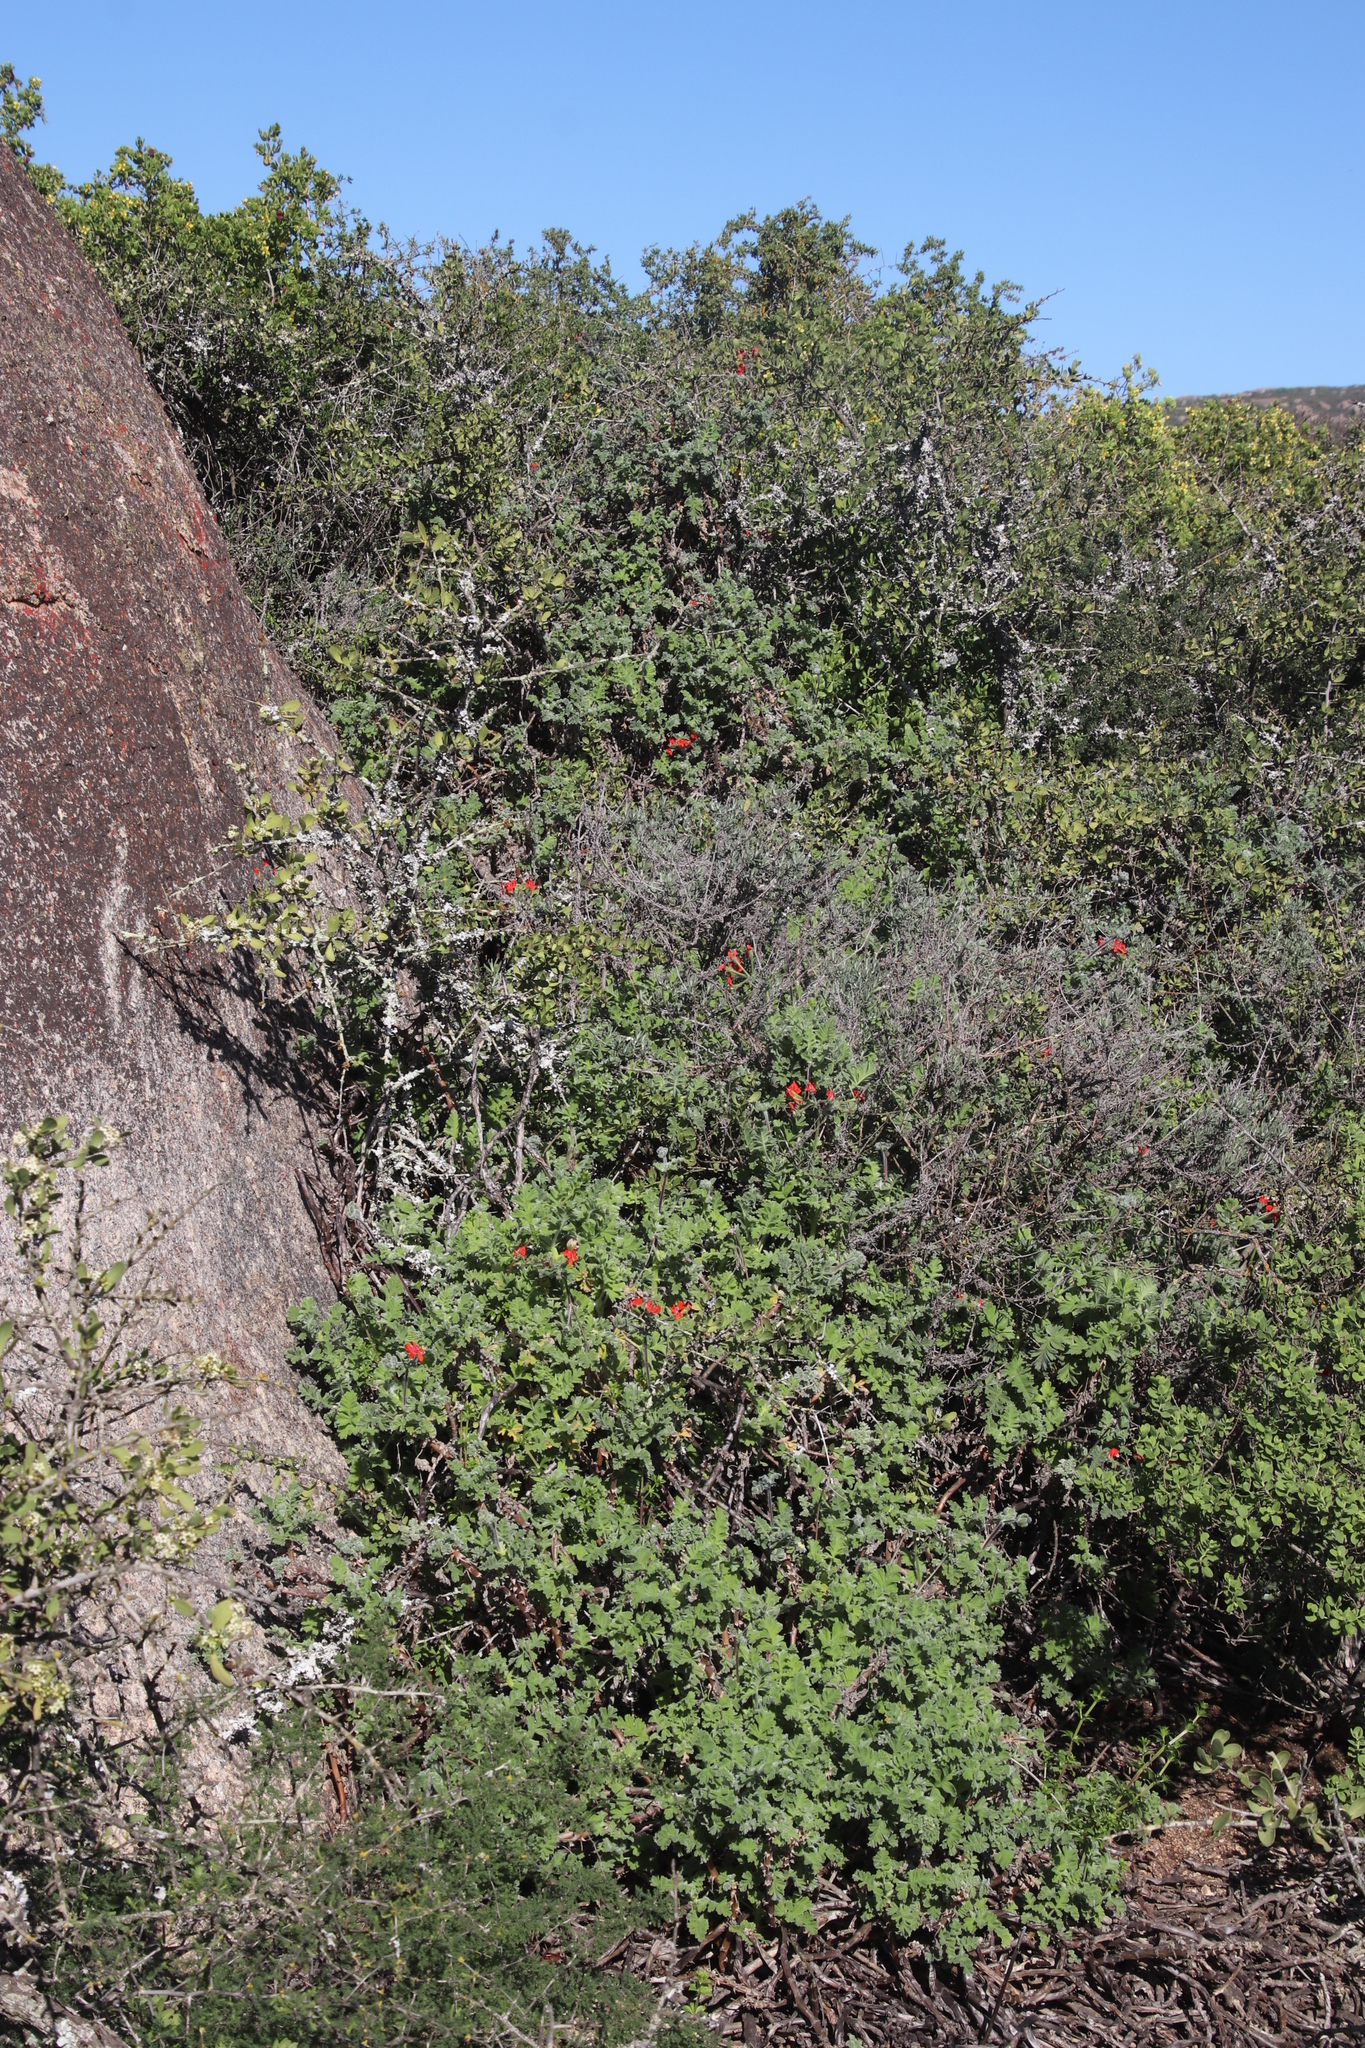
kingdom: Plantae
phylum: Tracheophyta
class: Magnoliopsida
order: Geraniales
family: Geraniaceae
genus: Pelargonium
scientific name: Pelargonium fulgidum
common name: Celandine-leaf pelargonium
